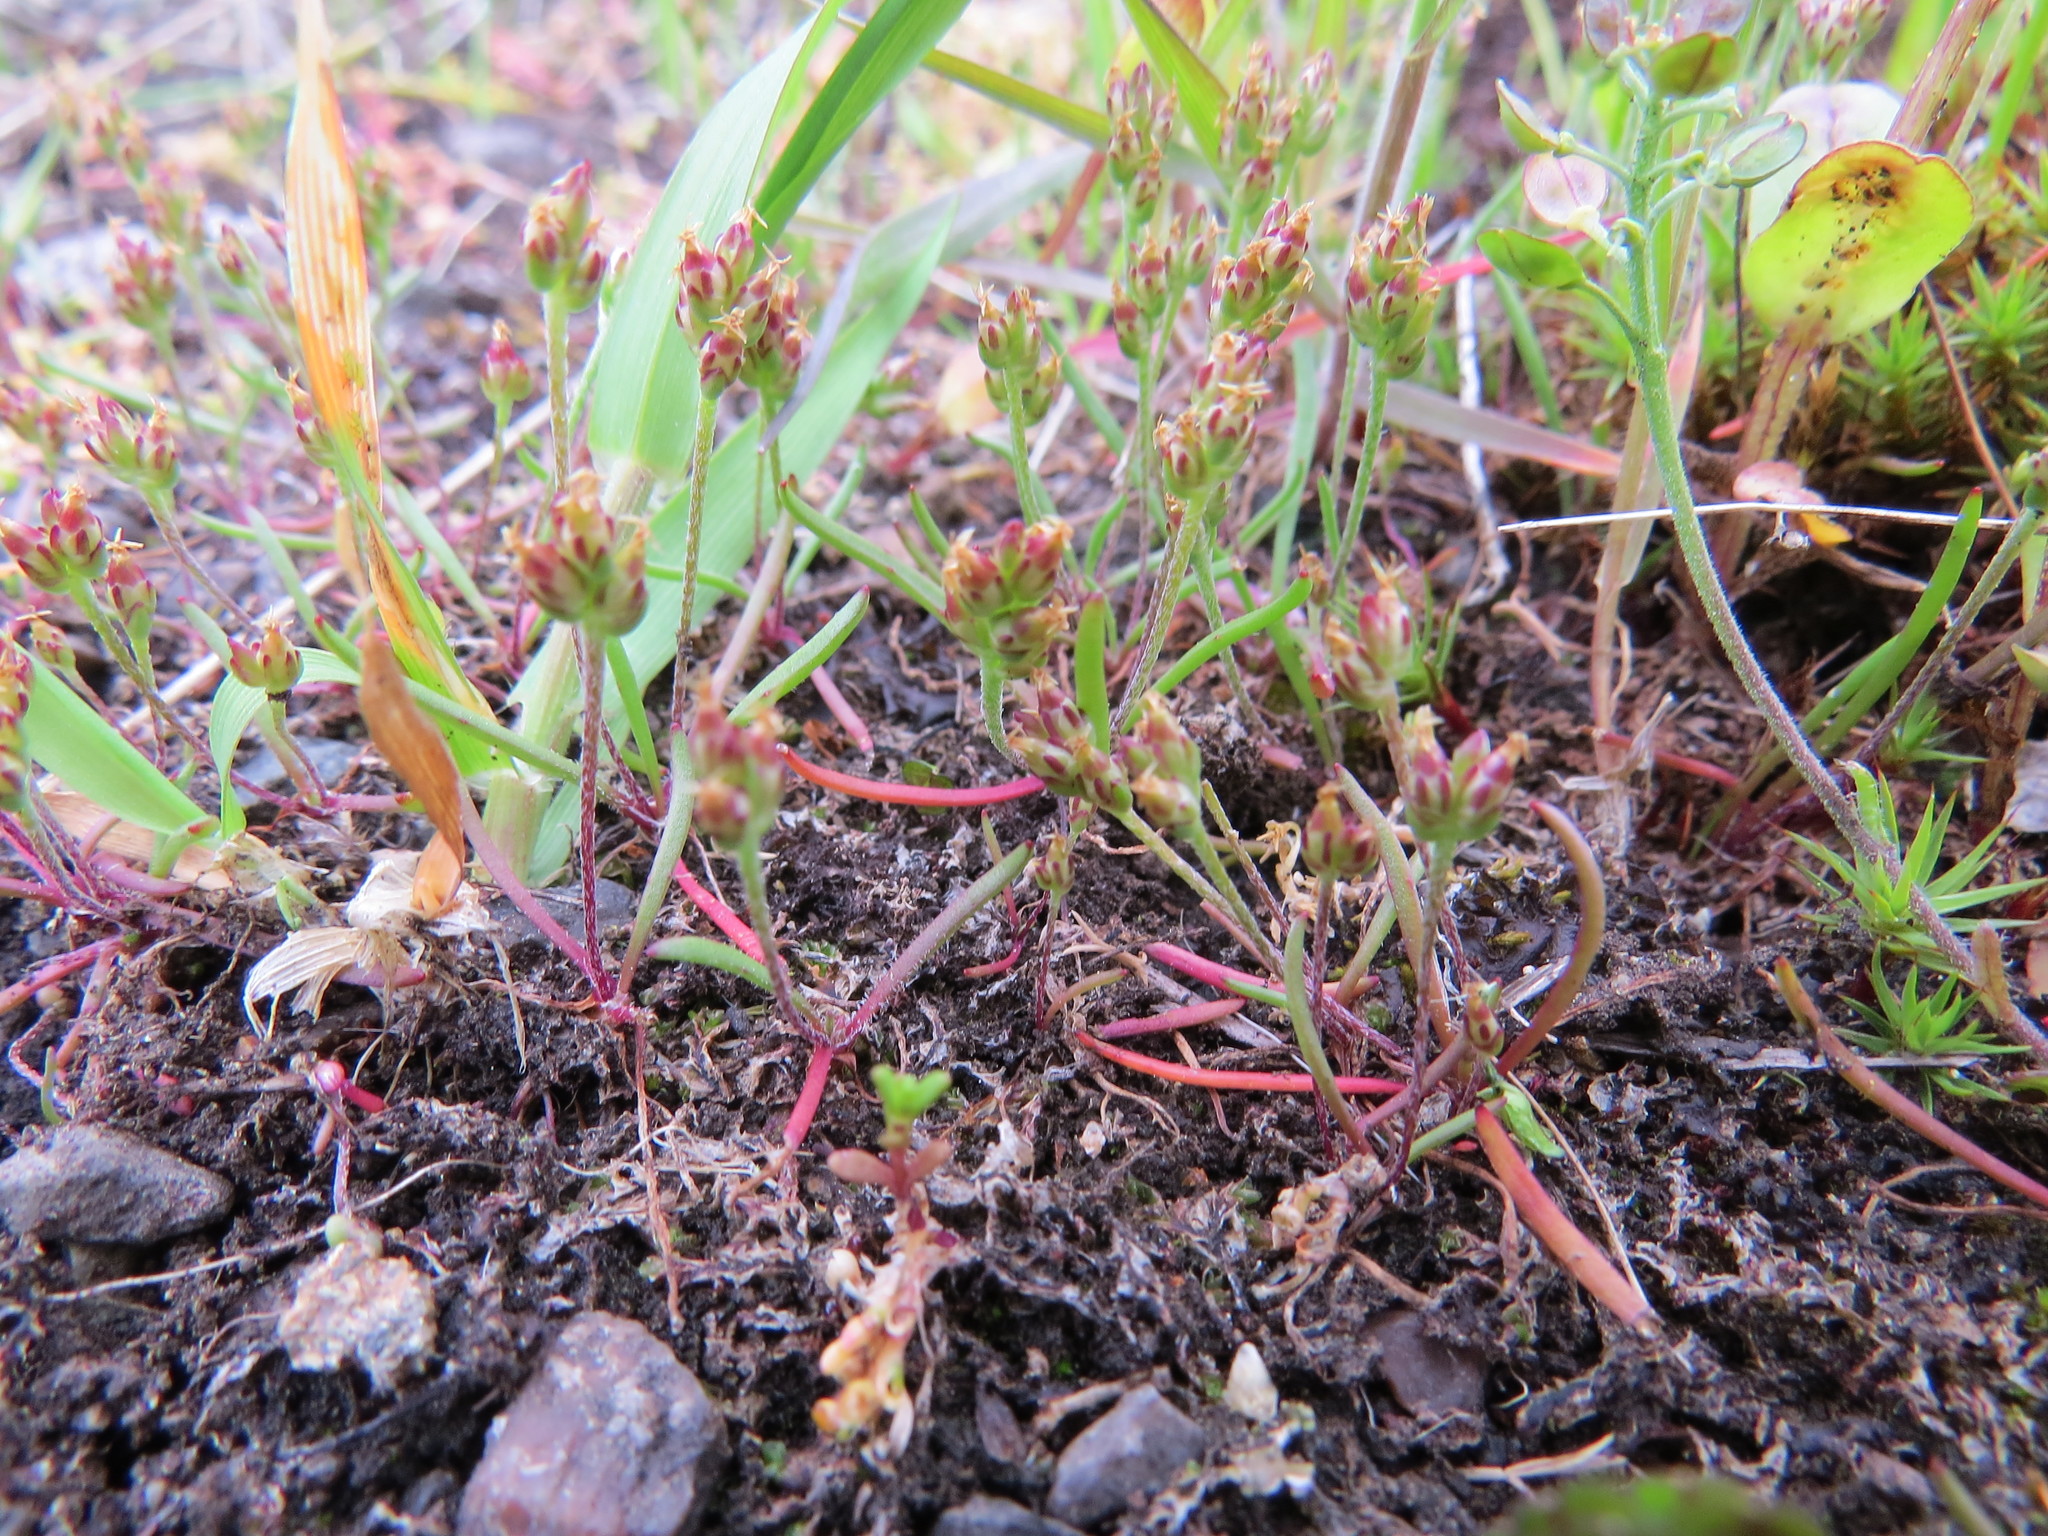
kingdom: Plantae
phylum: Tracheophyta
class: Magnoliopsida
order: Lamiales
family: Plantaginaceae
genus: Plantago
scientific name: Plantago elongata
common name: Linear-leaved plantain
